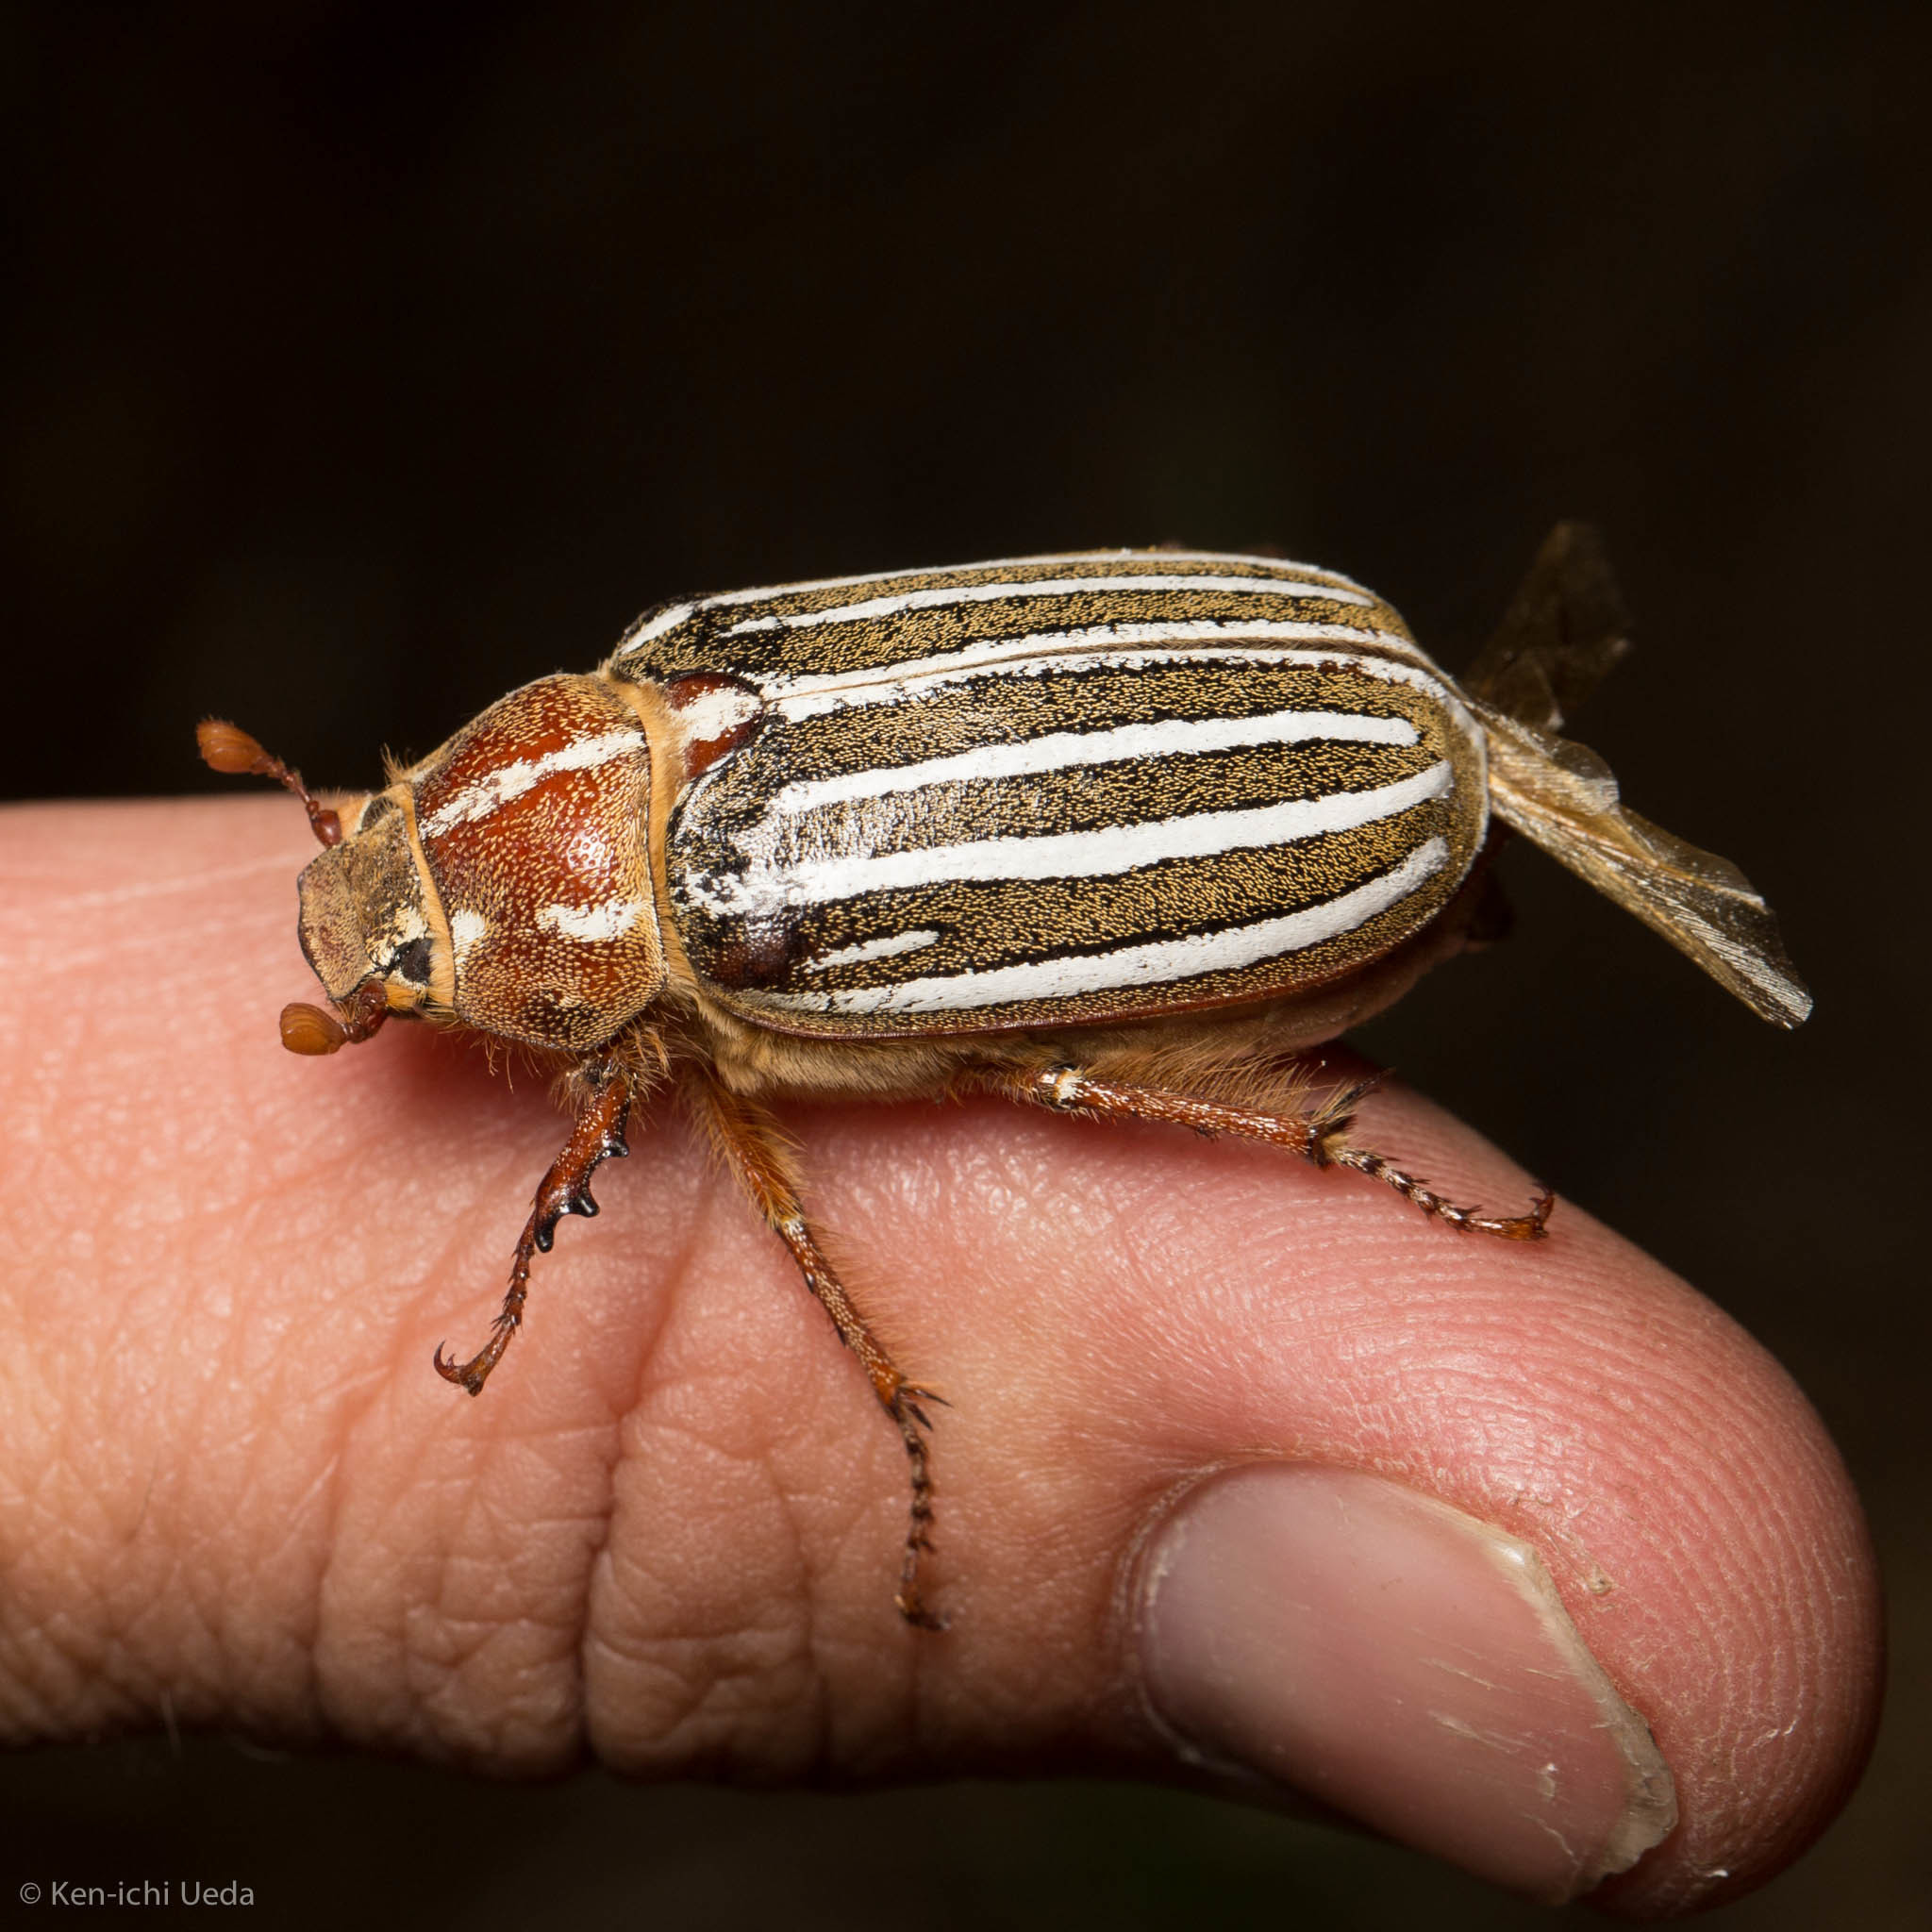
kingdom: Animalia
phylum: Arthropoda
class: Insecta
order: Coleoptera
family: Scarabaeidae
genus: Polyphylla
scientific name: Polyphylla decemlineata
